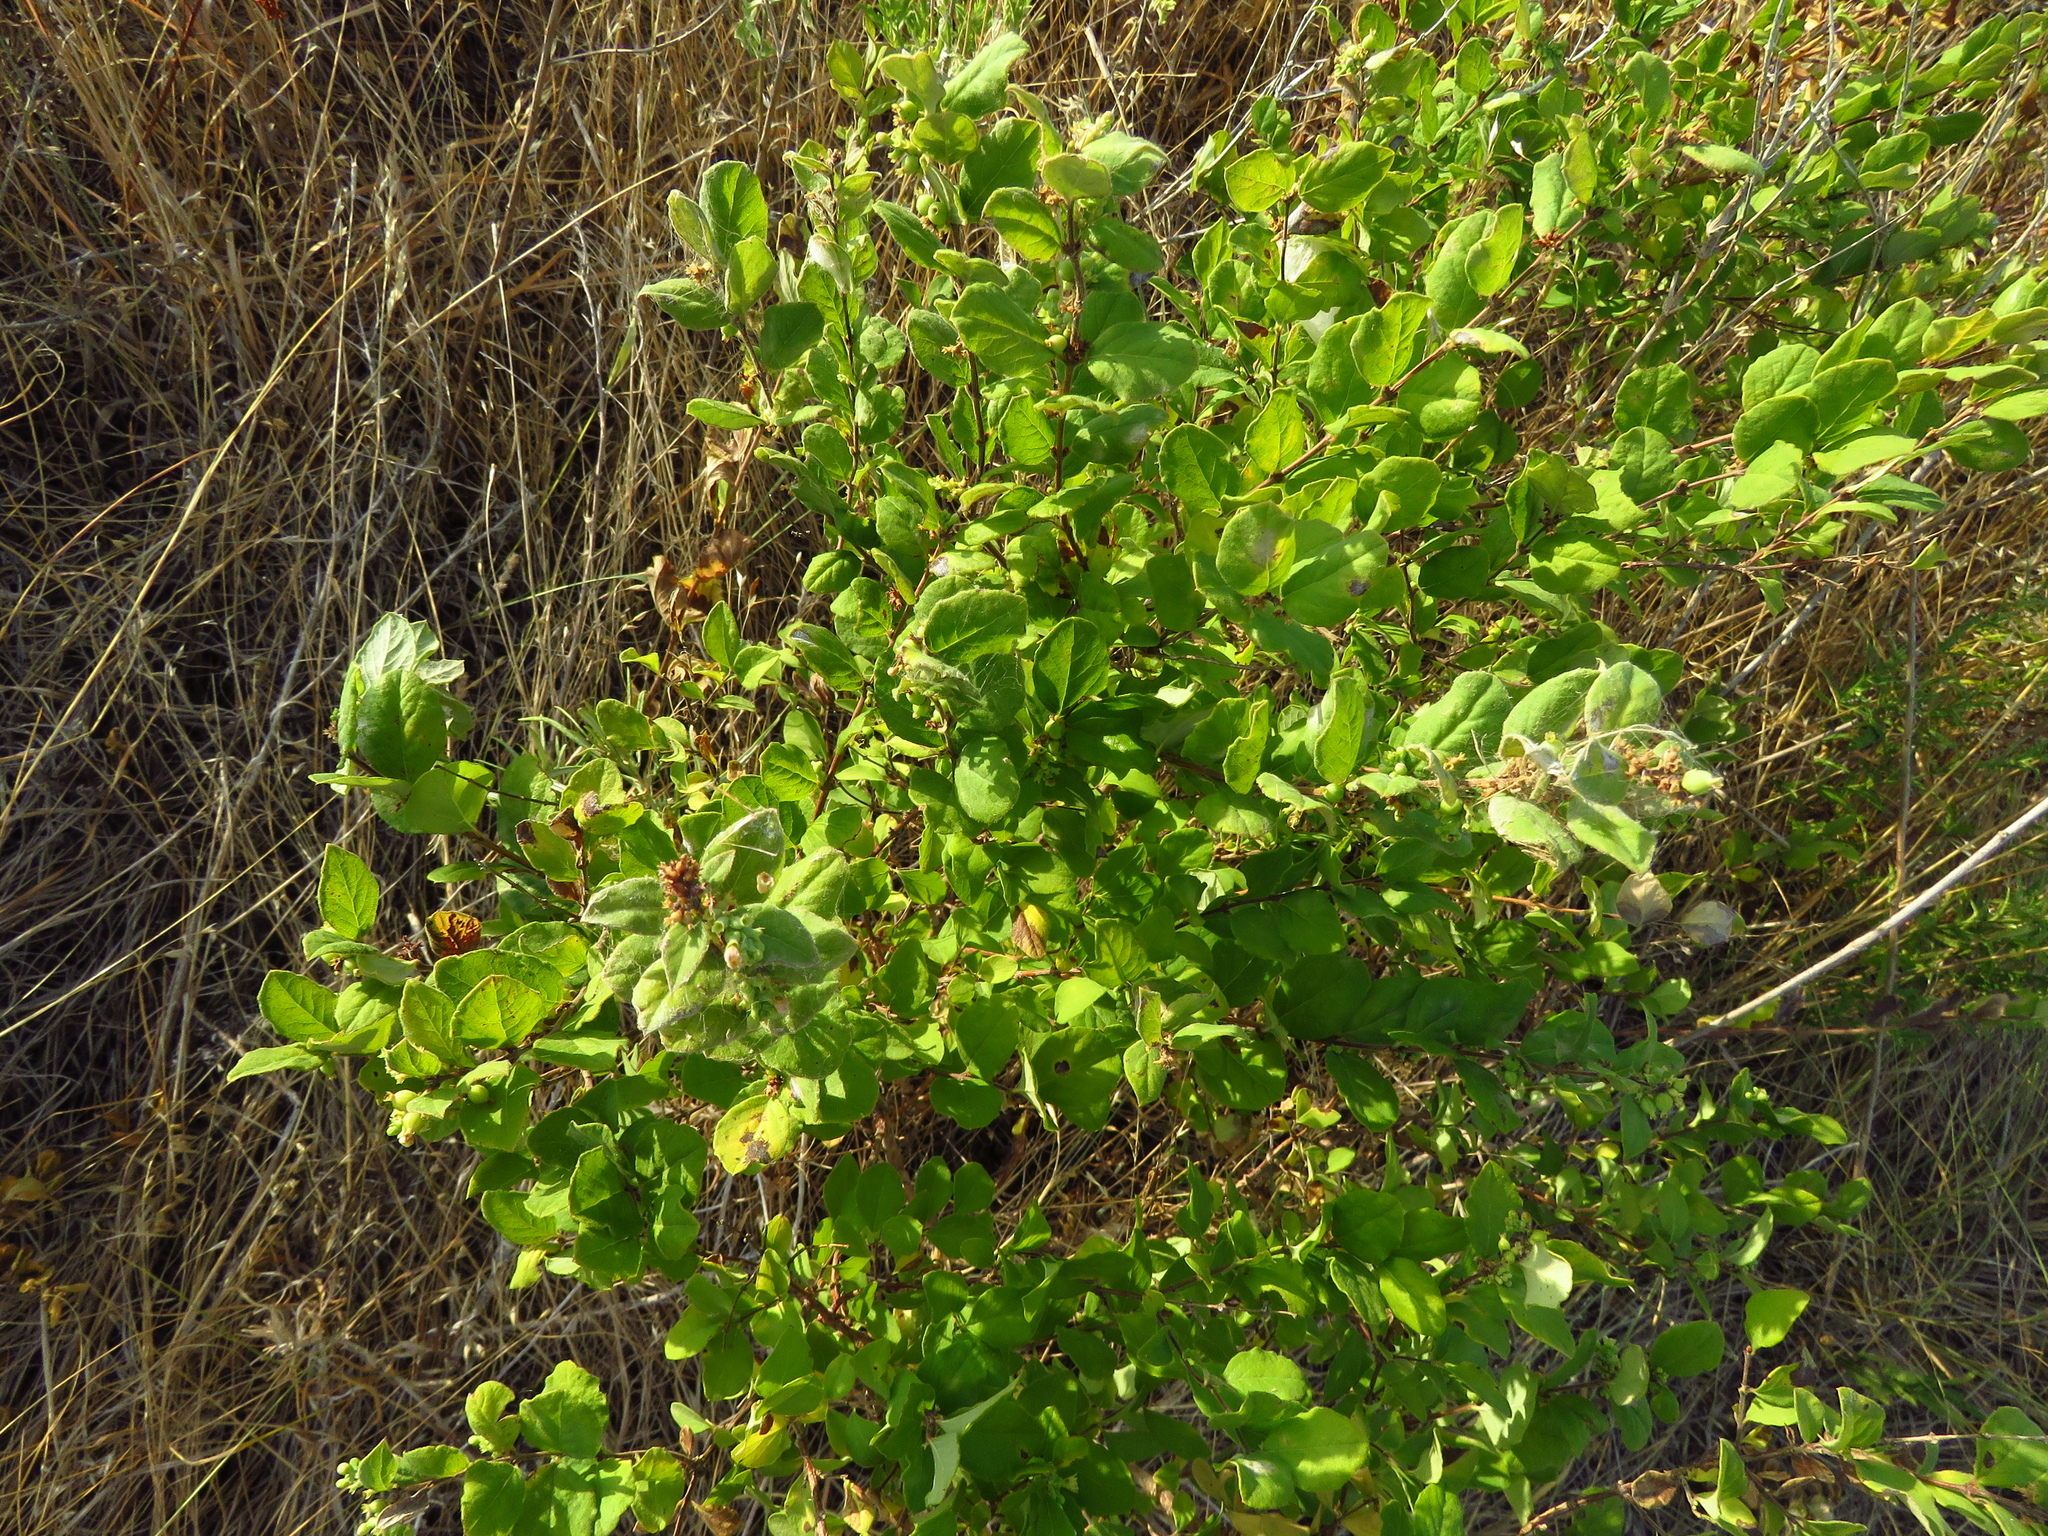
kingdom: Plantae
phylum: Tracheophyta
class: Magnoliopsida
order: Dipsacales
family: Caprifoliaceae
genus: Symphoricarpos
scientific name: Symphoricarpos orbiculatus
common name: Coralberry
